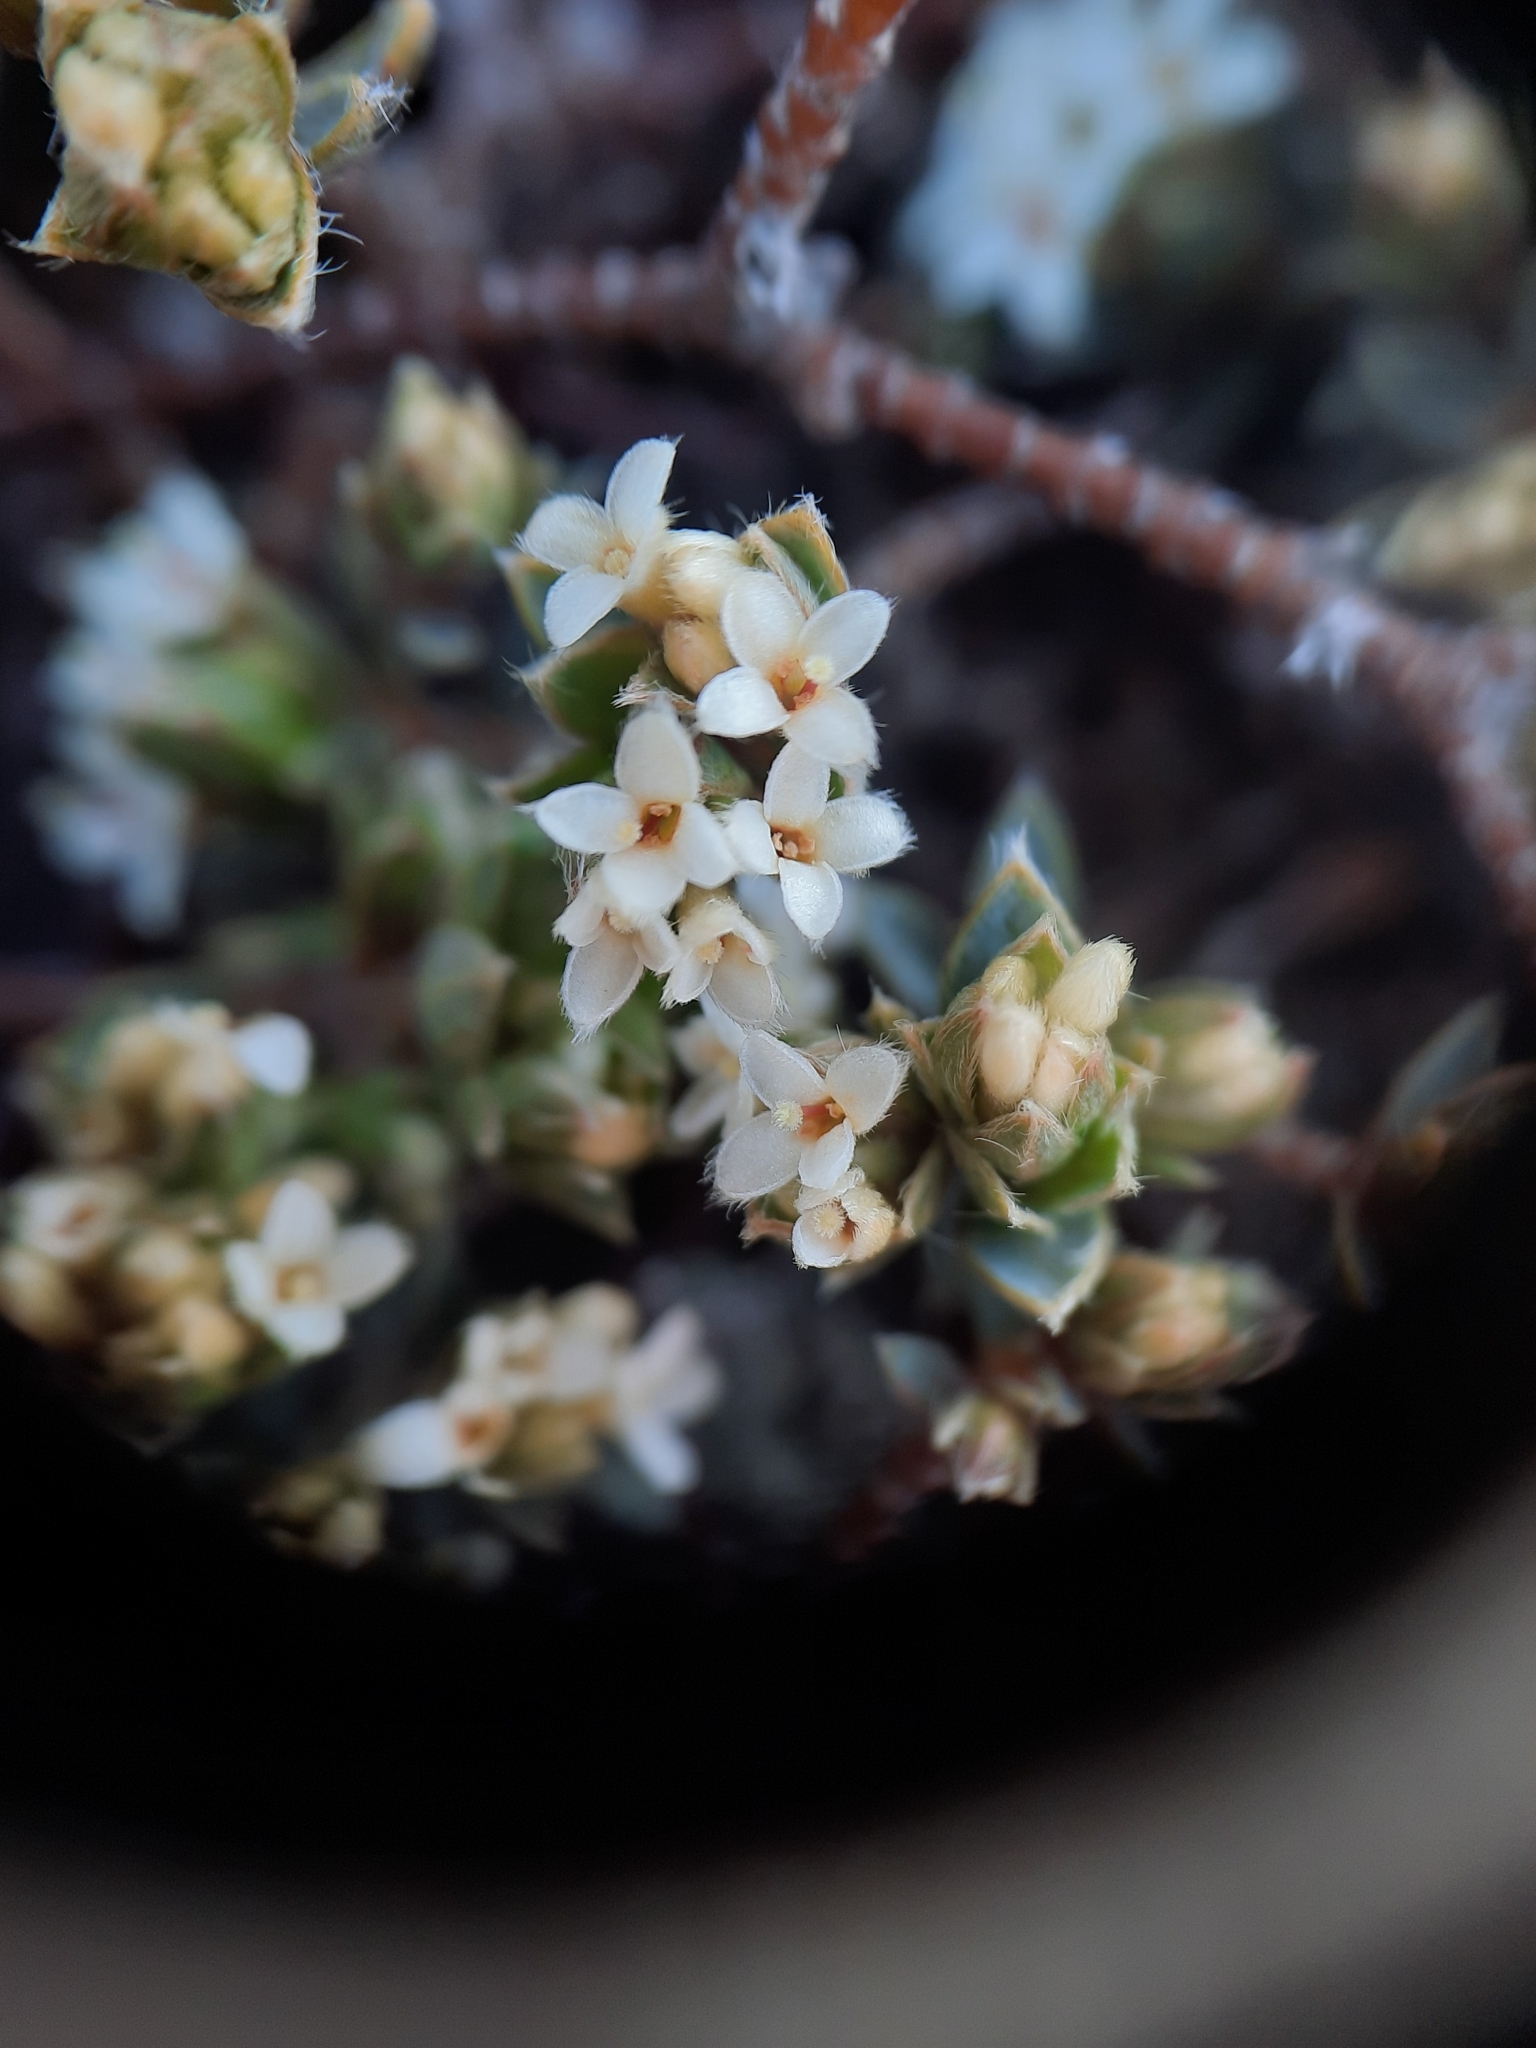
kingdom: Plantae
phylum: Tracheophyta
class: Magnoliopsida
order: Malvales
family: Thymelaeaceae
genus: Pimelea
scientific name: Pimelea oreophila
